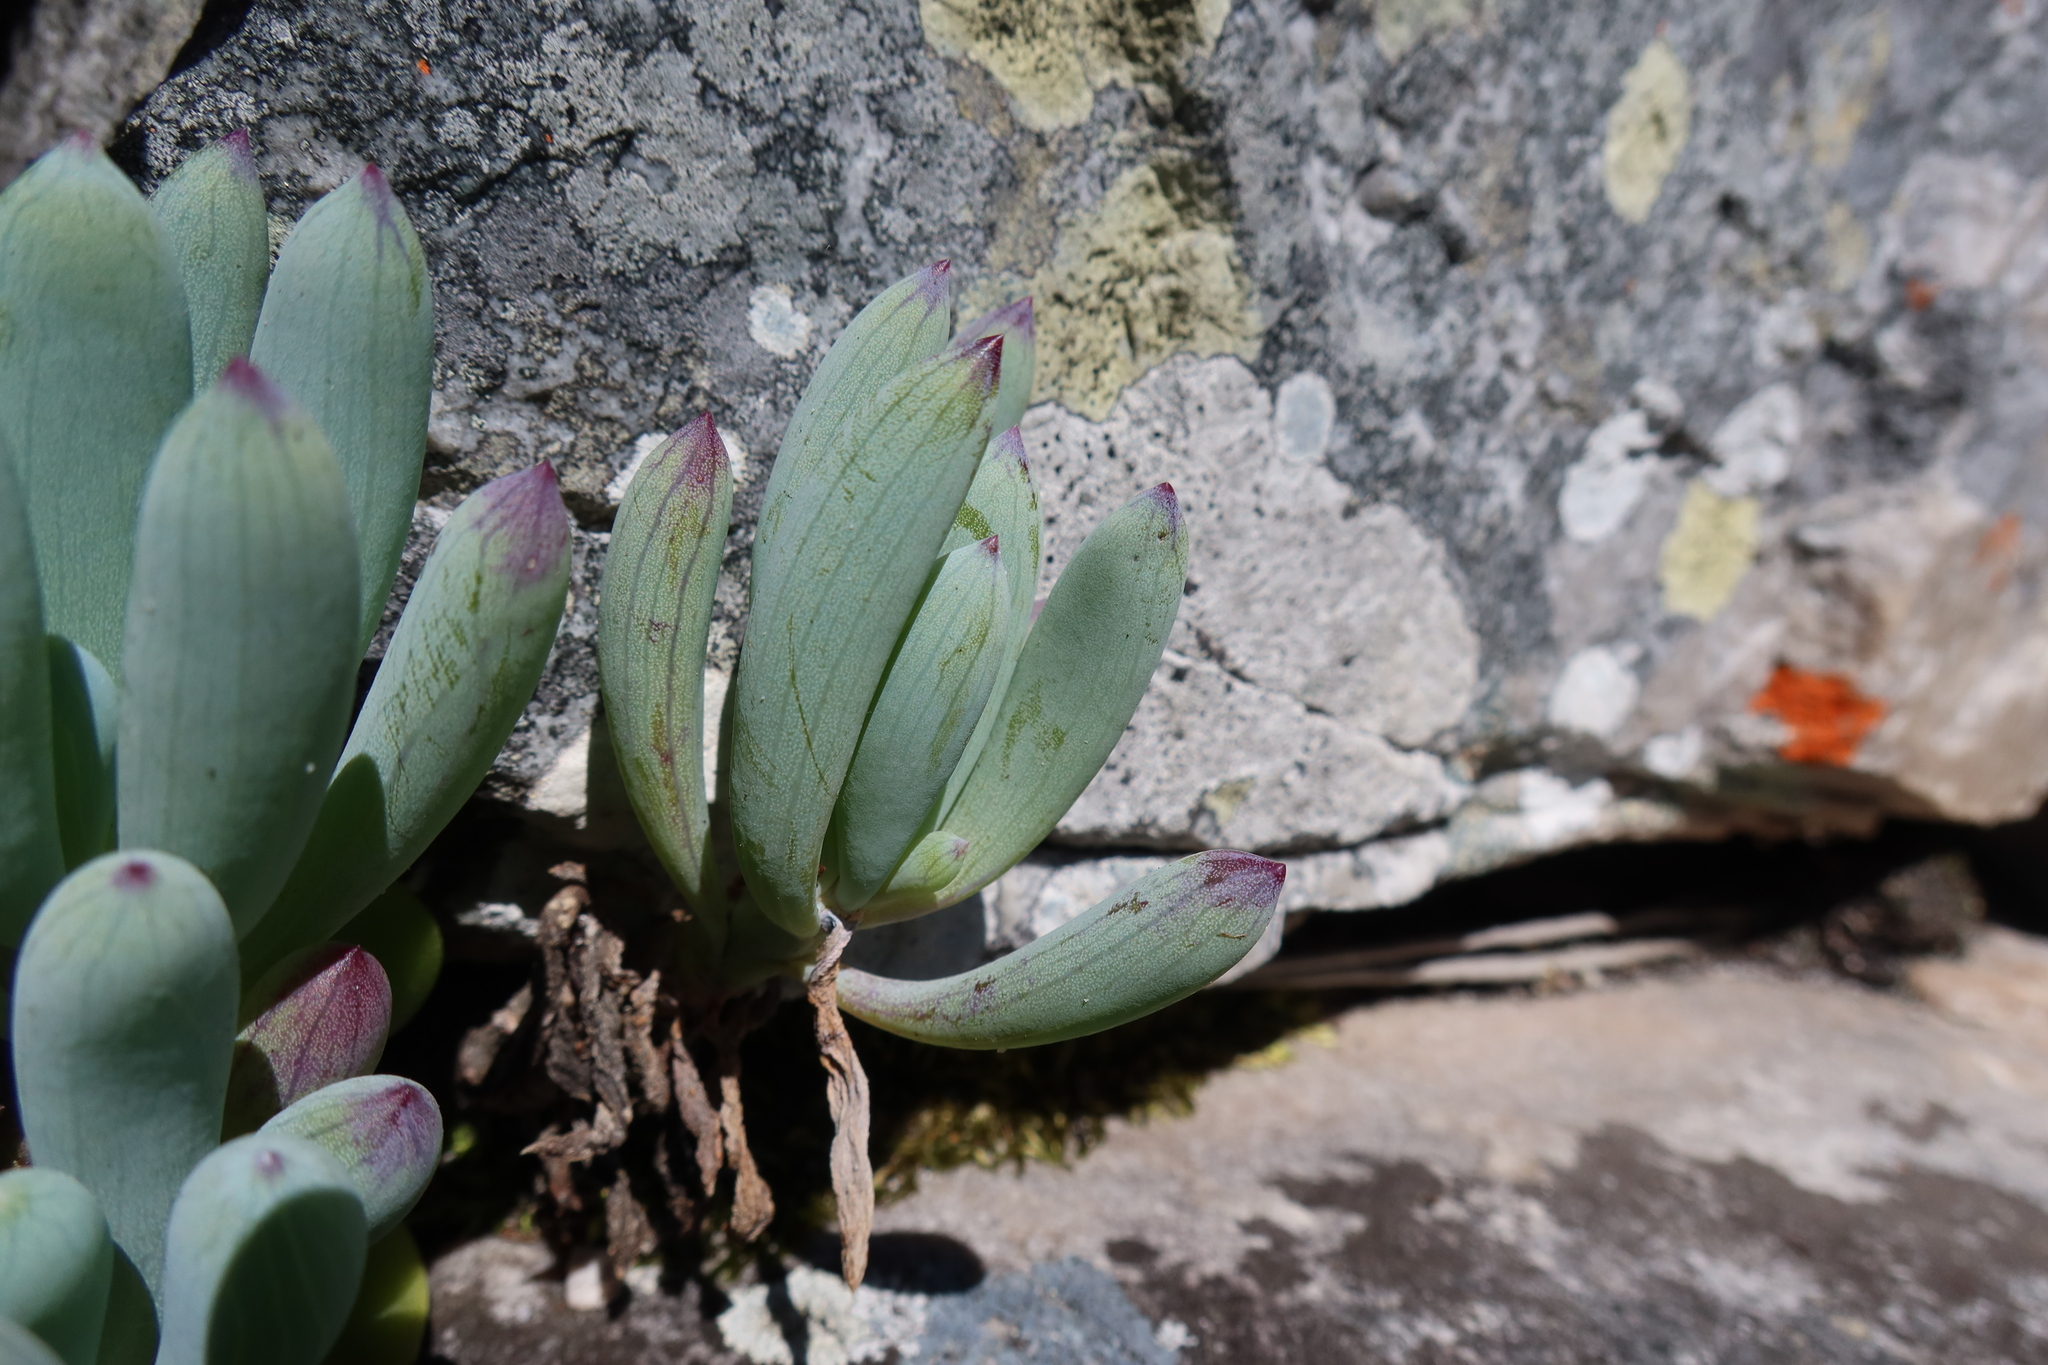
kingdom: Plantae
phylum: Tracheophyta
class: Magnoliopsida
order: Asterales
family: Asteraceae
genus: Curio
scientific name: Curio crassulifolius
